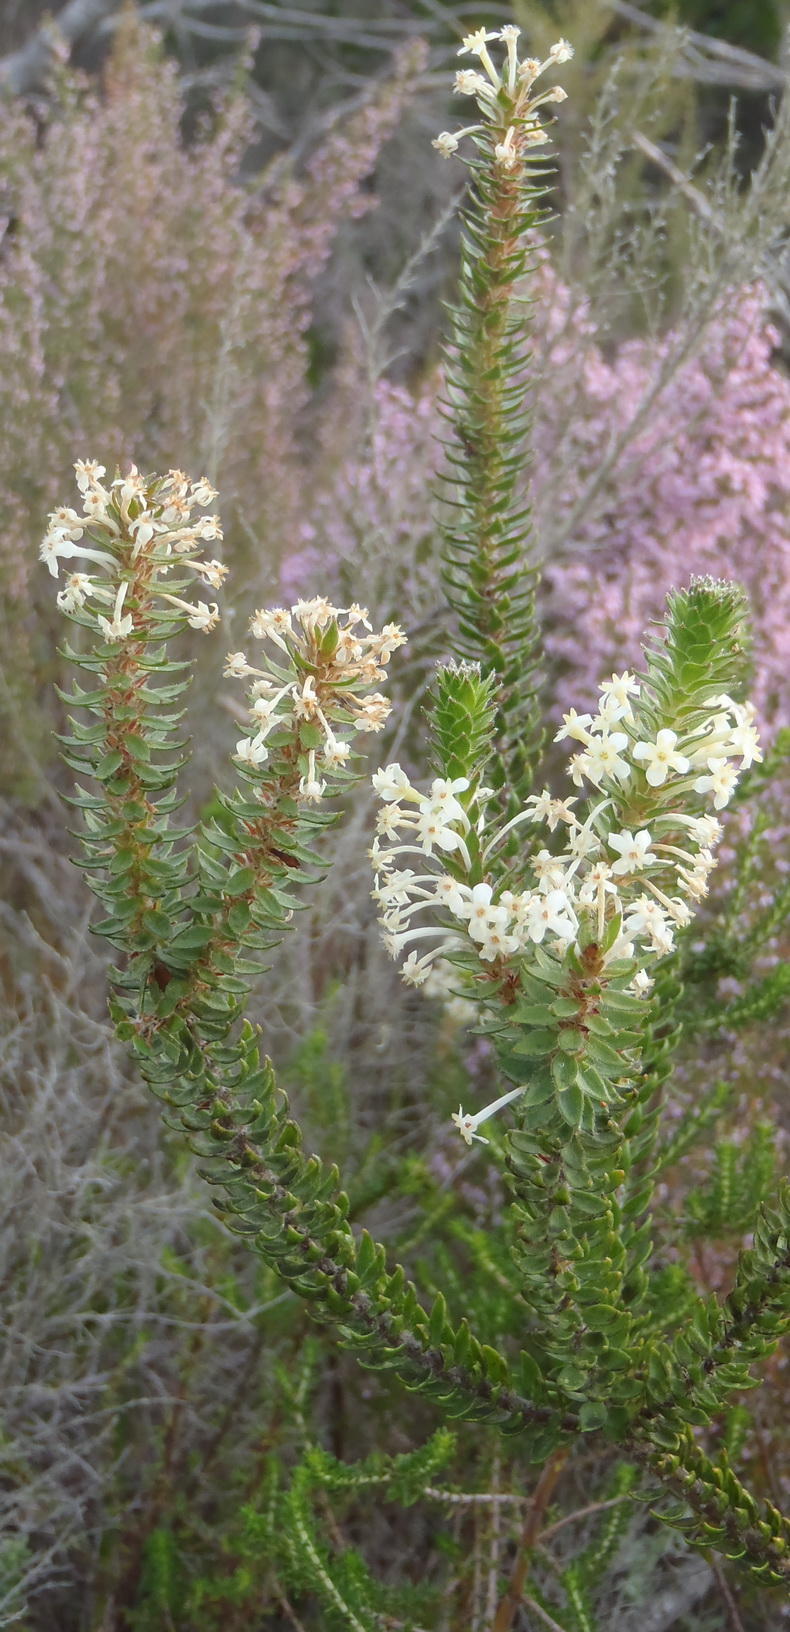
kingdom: Plantae
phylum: Tracheophyta
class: Magnoliopsida
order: Malvales
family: Thymelaeaceae
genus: Struthiola
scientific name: Struthiola hirsuta
